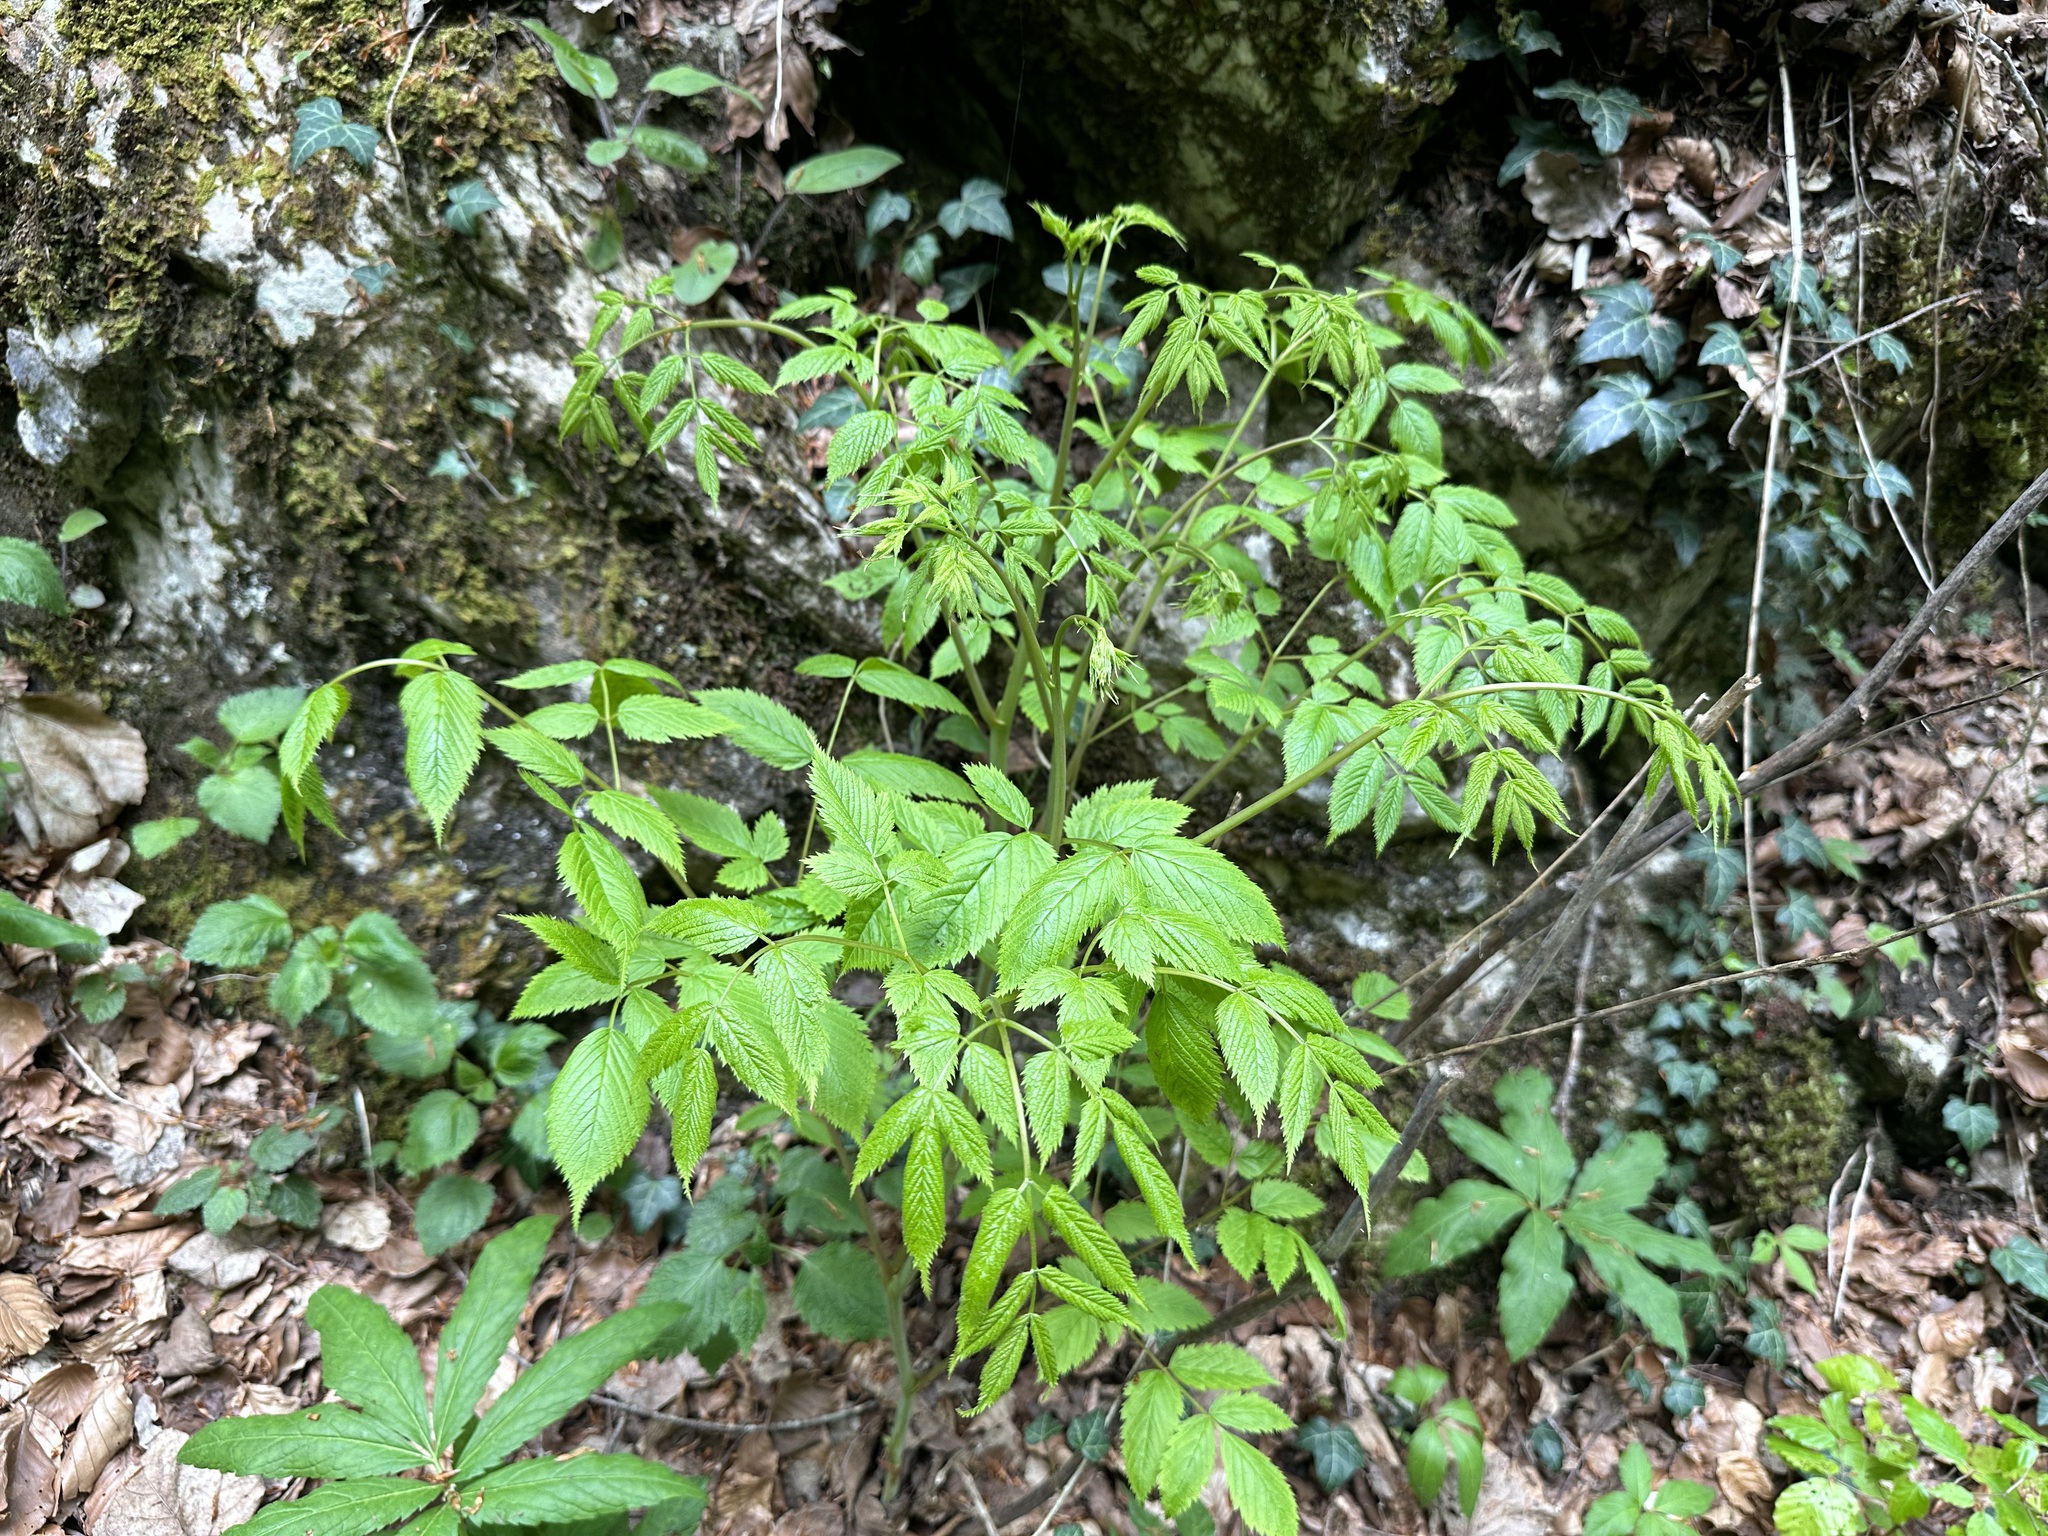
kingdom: Plantae
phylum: Tracheophyta
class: Magnoliopsida
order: Rosales
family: Rosaceae
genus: Aruncus
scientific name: Aruncus dioicus
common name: Buck's-beard
